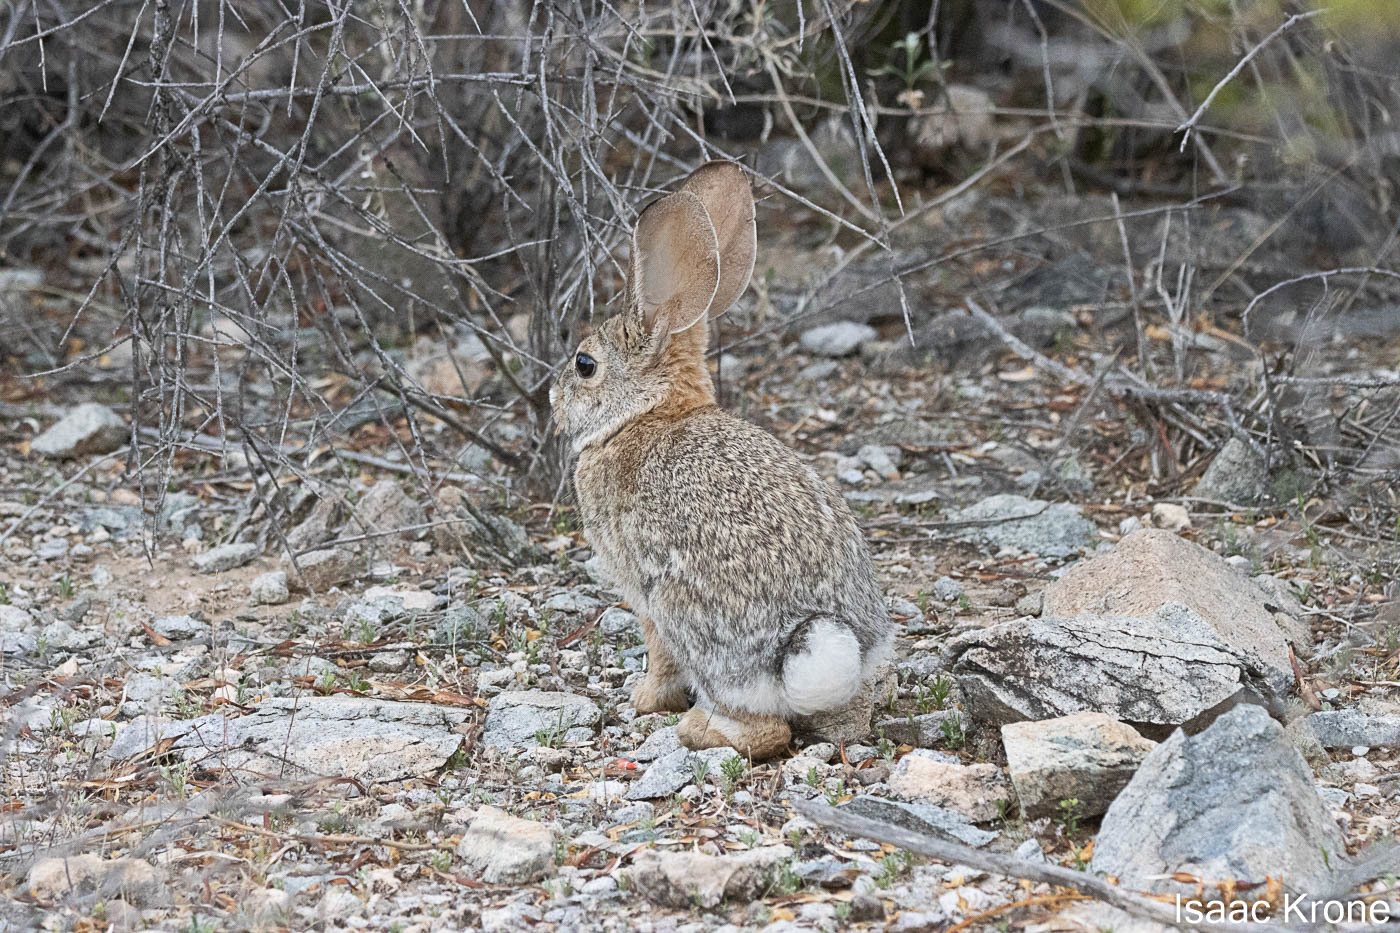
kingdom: Animalia
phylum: Chordata
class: Mammalia
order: Lagomorpha
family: Leporidae
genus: Sylvilagus
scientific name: Sylvilagus audubonii
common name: Desert cottontail
